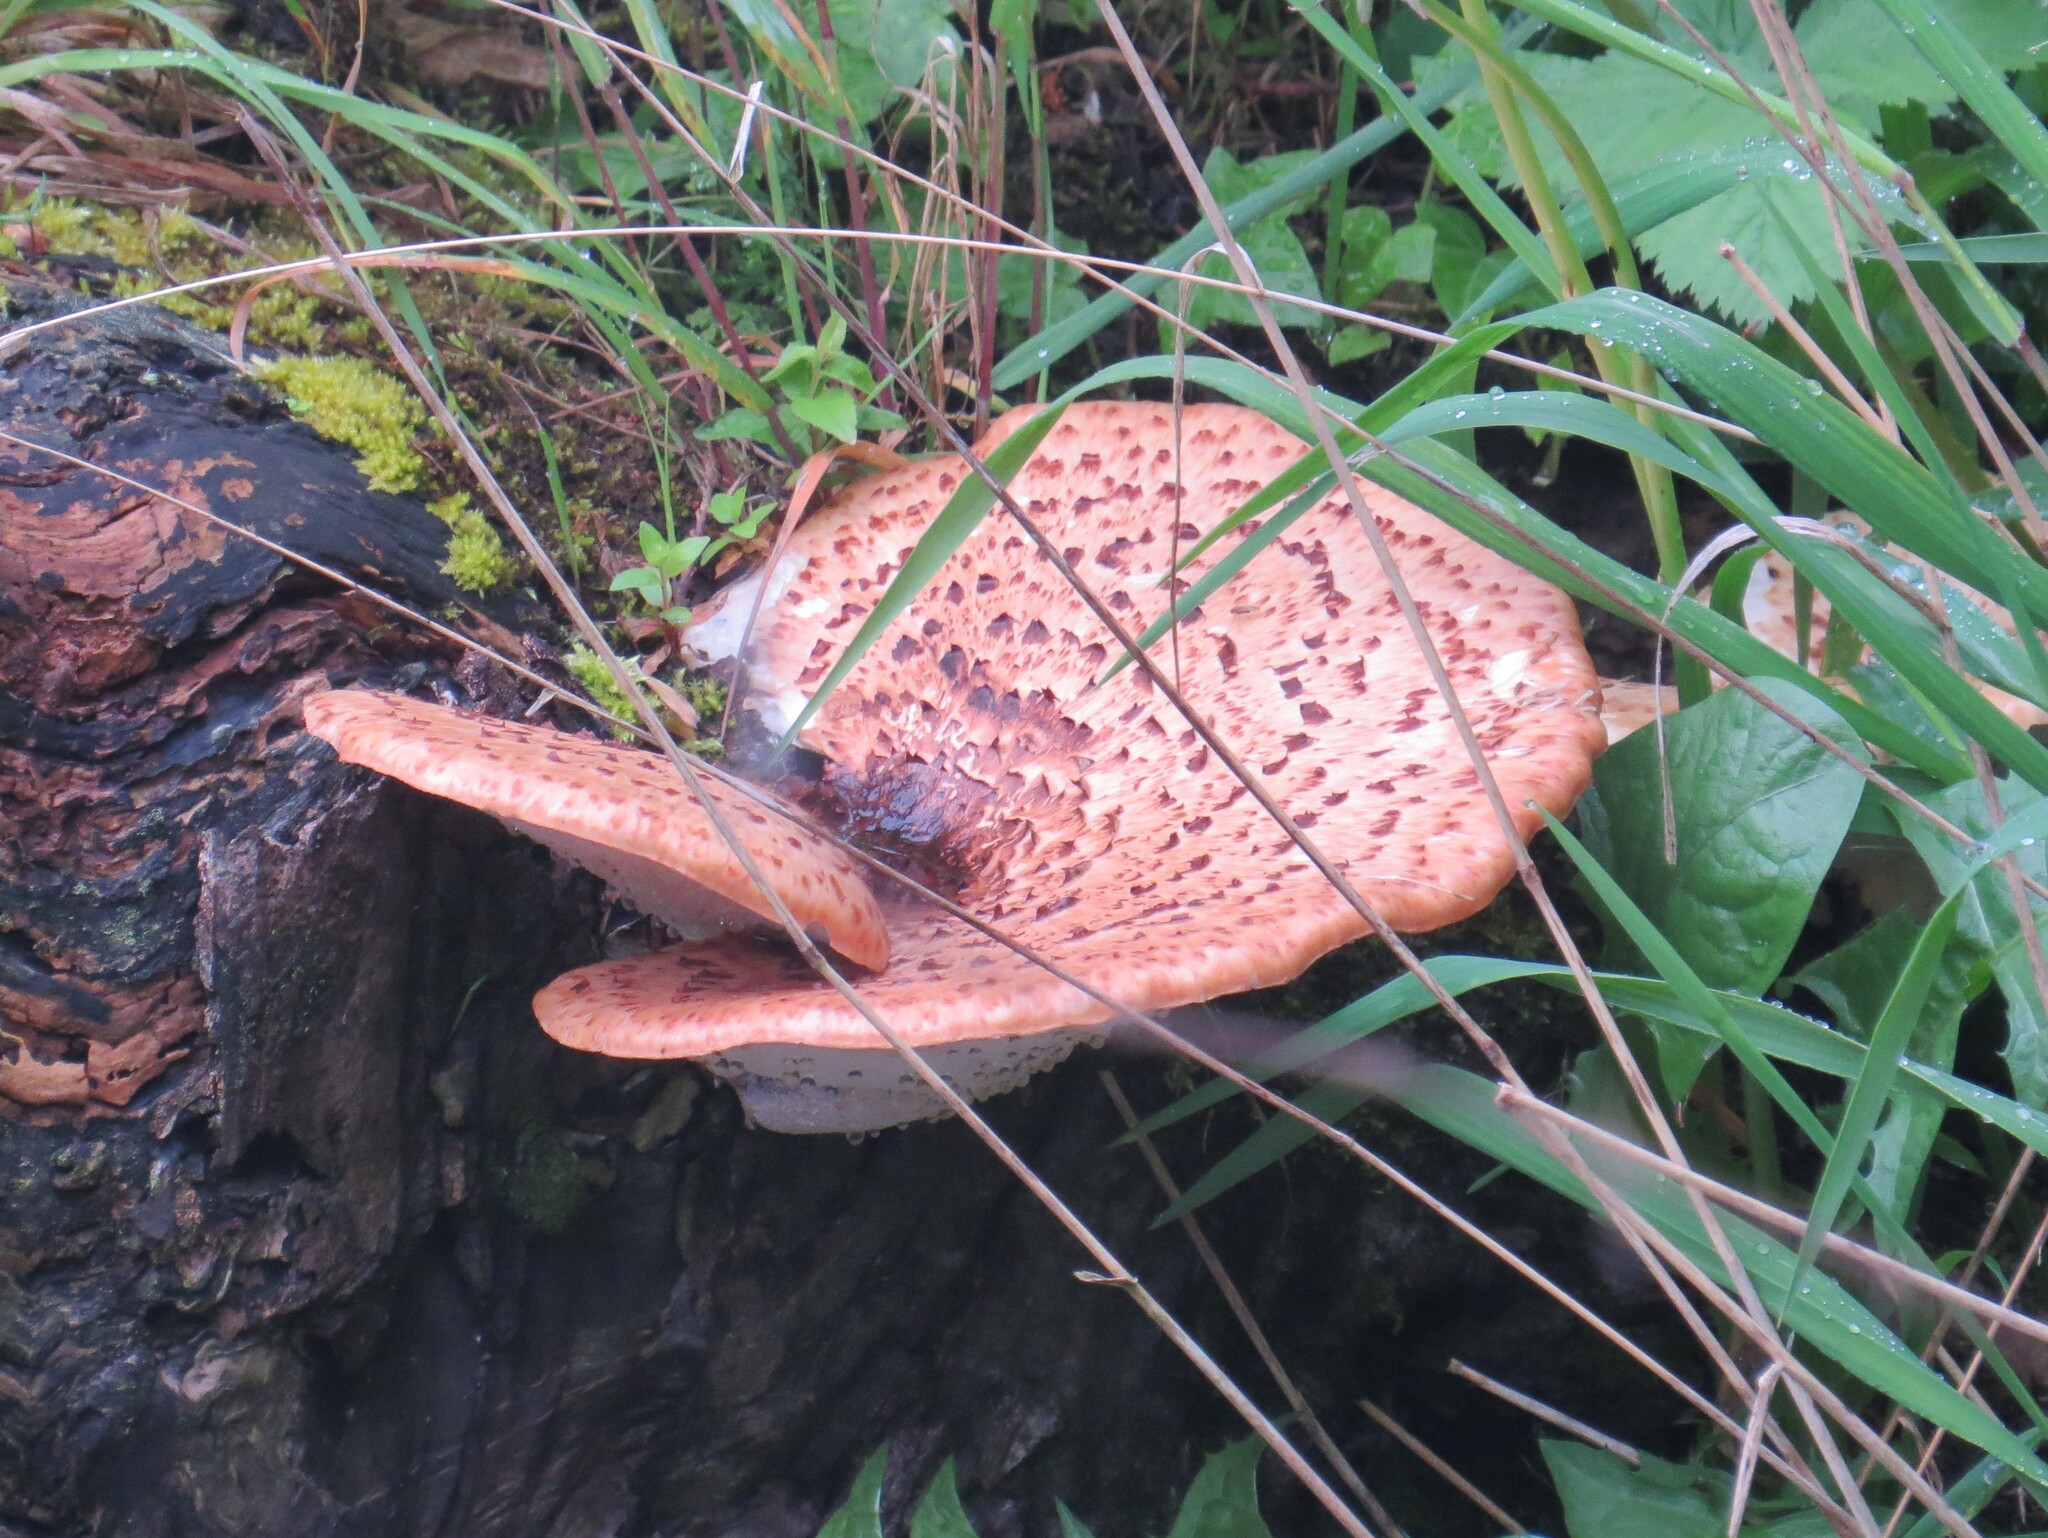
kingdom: Fungi
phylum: Basidiomycota
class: Agaricomycetes
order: Polyporales
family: Polyporaceae
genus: Cerioporus
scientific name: Cerioporus squamosus
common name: Dryad's saddle
